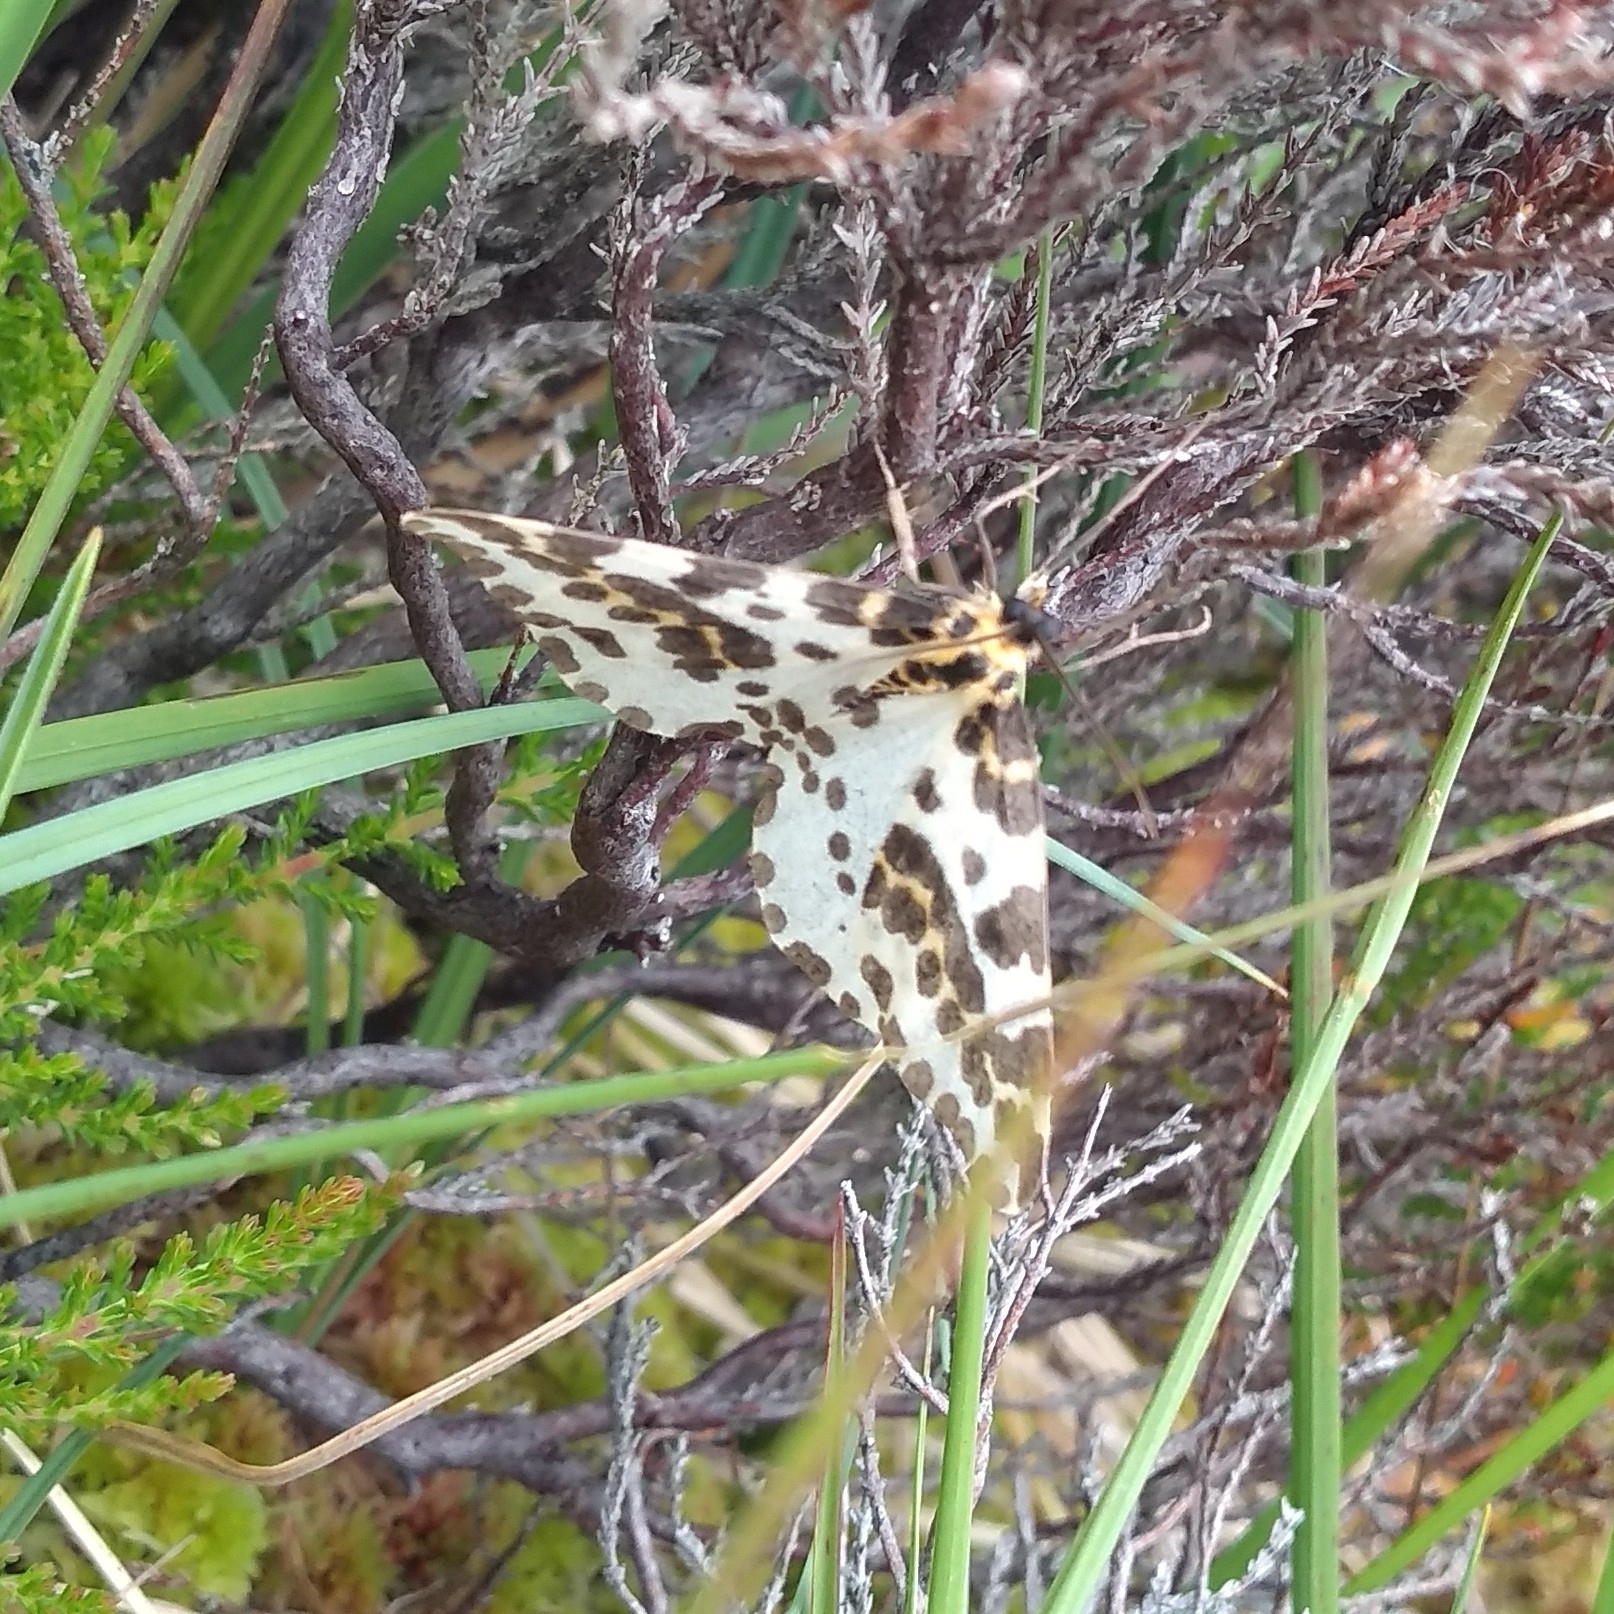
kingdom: Animalia
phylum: Arthropoda
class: Insecta
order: Lepidoptera
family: Geometridae
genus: Abraxas
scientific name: Abraxas grossulariata
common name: Magpie
